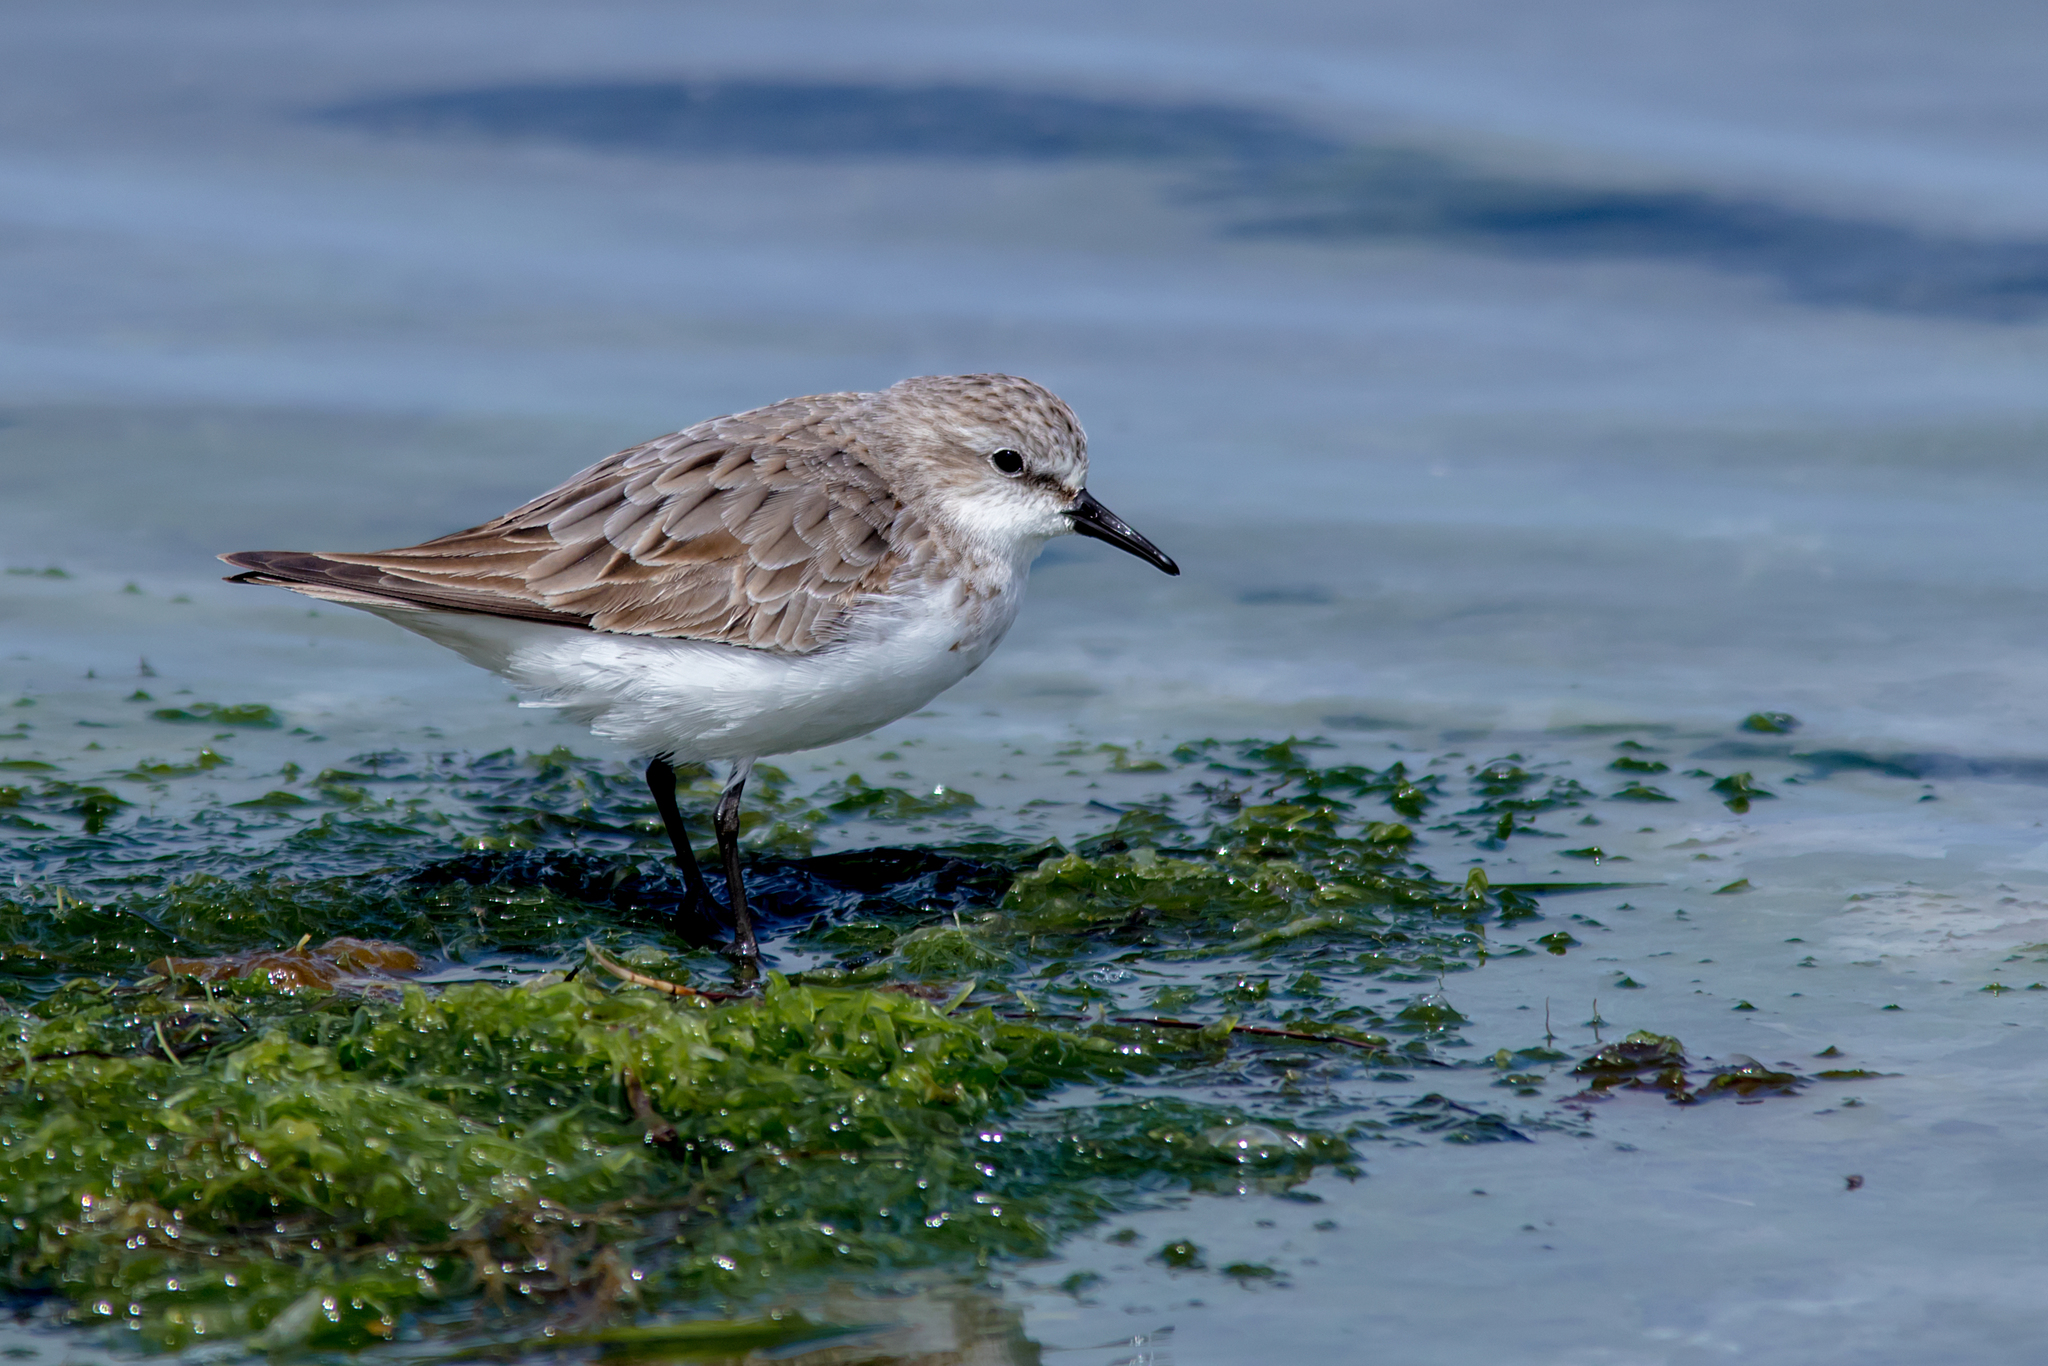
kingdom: Animalia
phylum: Chordata
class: Aves
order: Charadriiformes
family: Scolopacidae
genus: Calidris
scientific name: Calidris ruficollis
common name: Red-necked stint
